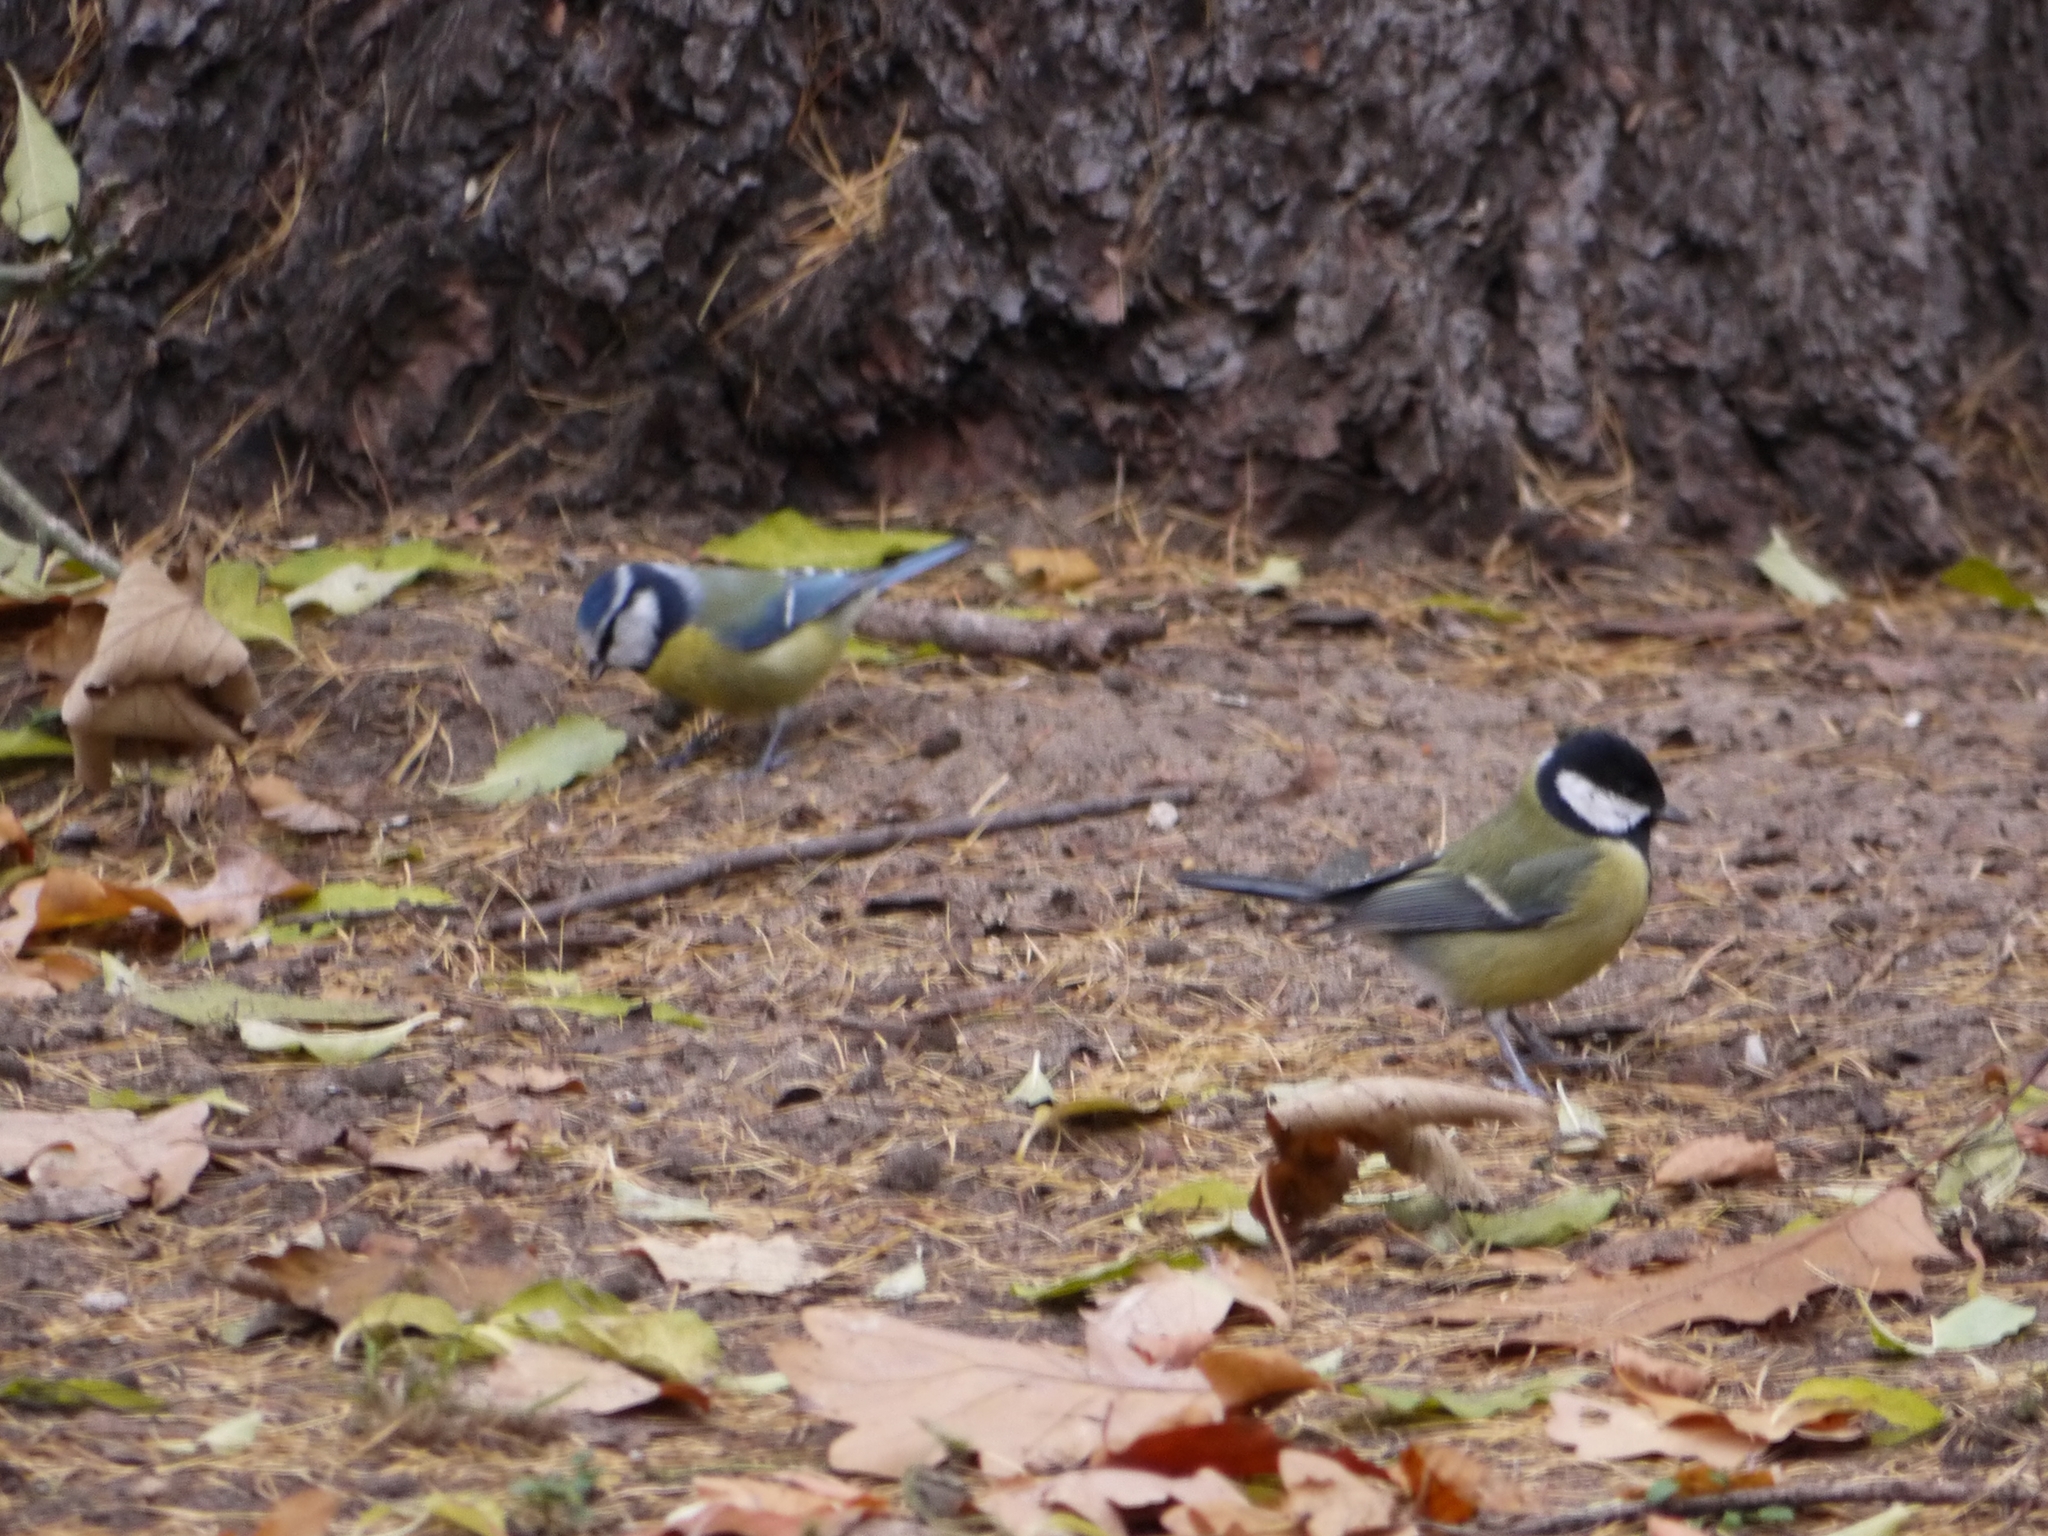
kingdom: Animalia
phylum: Chordata
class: Aves
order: Passeriformes
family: Paridae
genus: Parus
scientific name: Parus major
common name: Great tit
